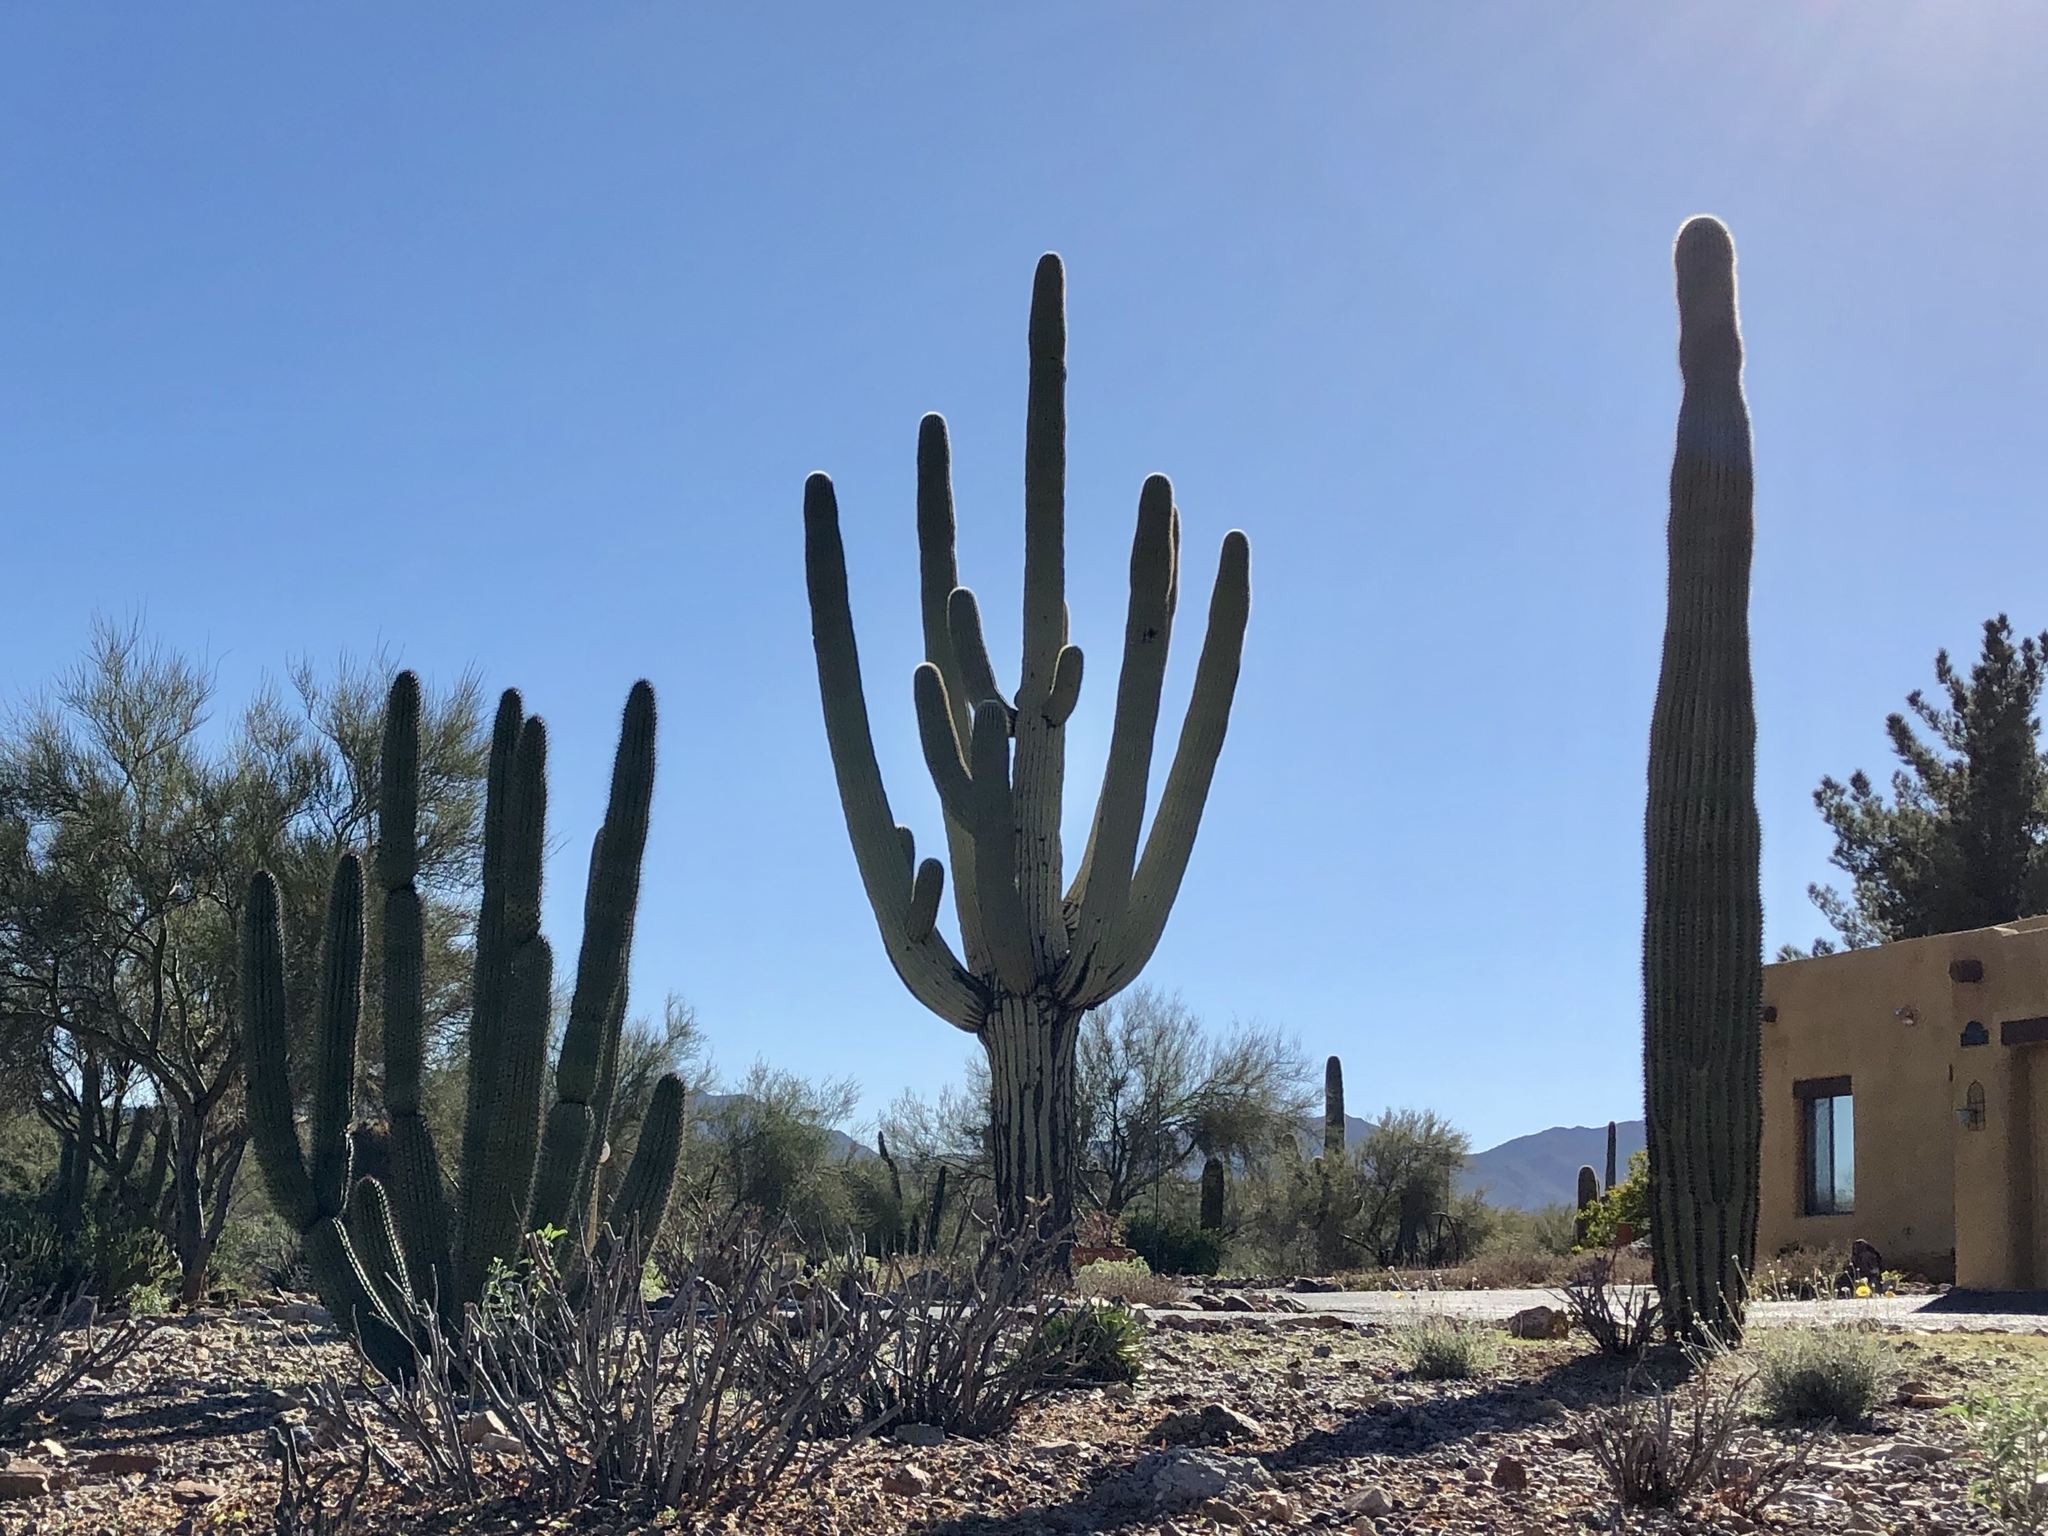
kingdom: Plantae
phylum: Tracheophyta
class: Magnoliopsida
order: Caryophyllales
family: Cactaceae
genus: Carnegiea
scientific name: Carnegiea gigantea
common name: Saguaro
